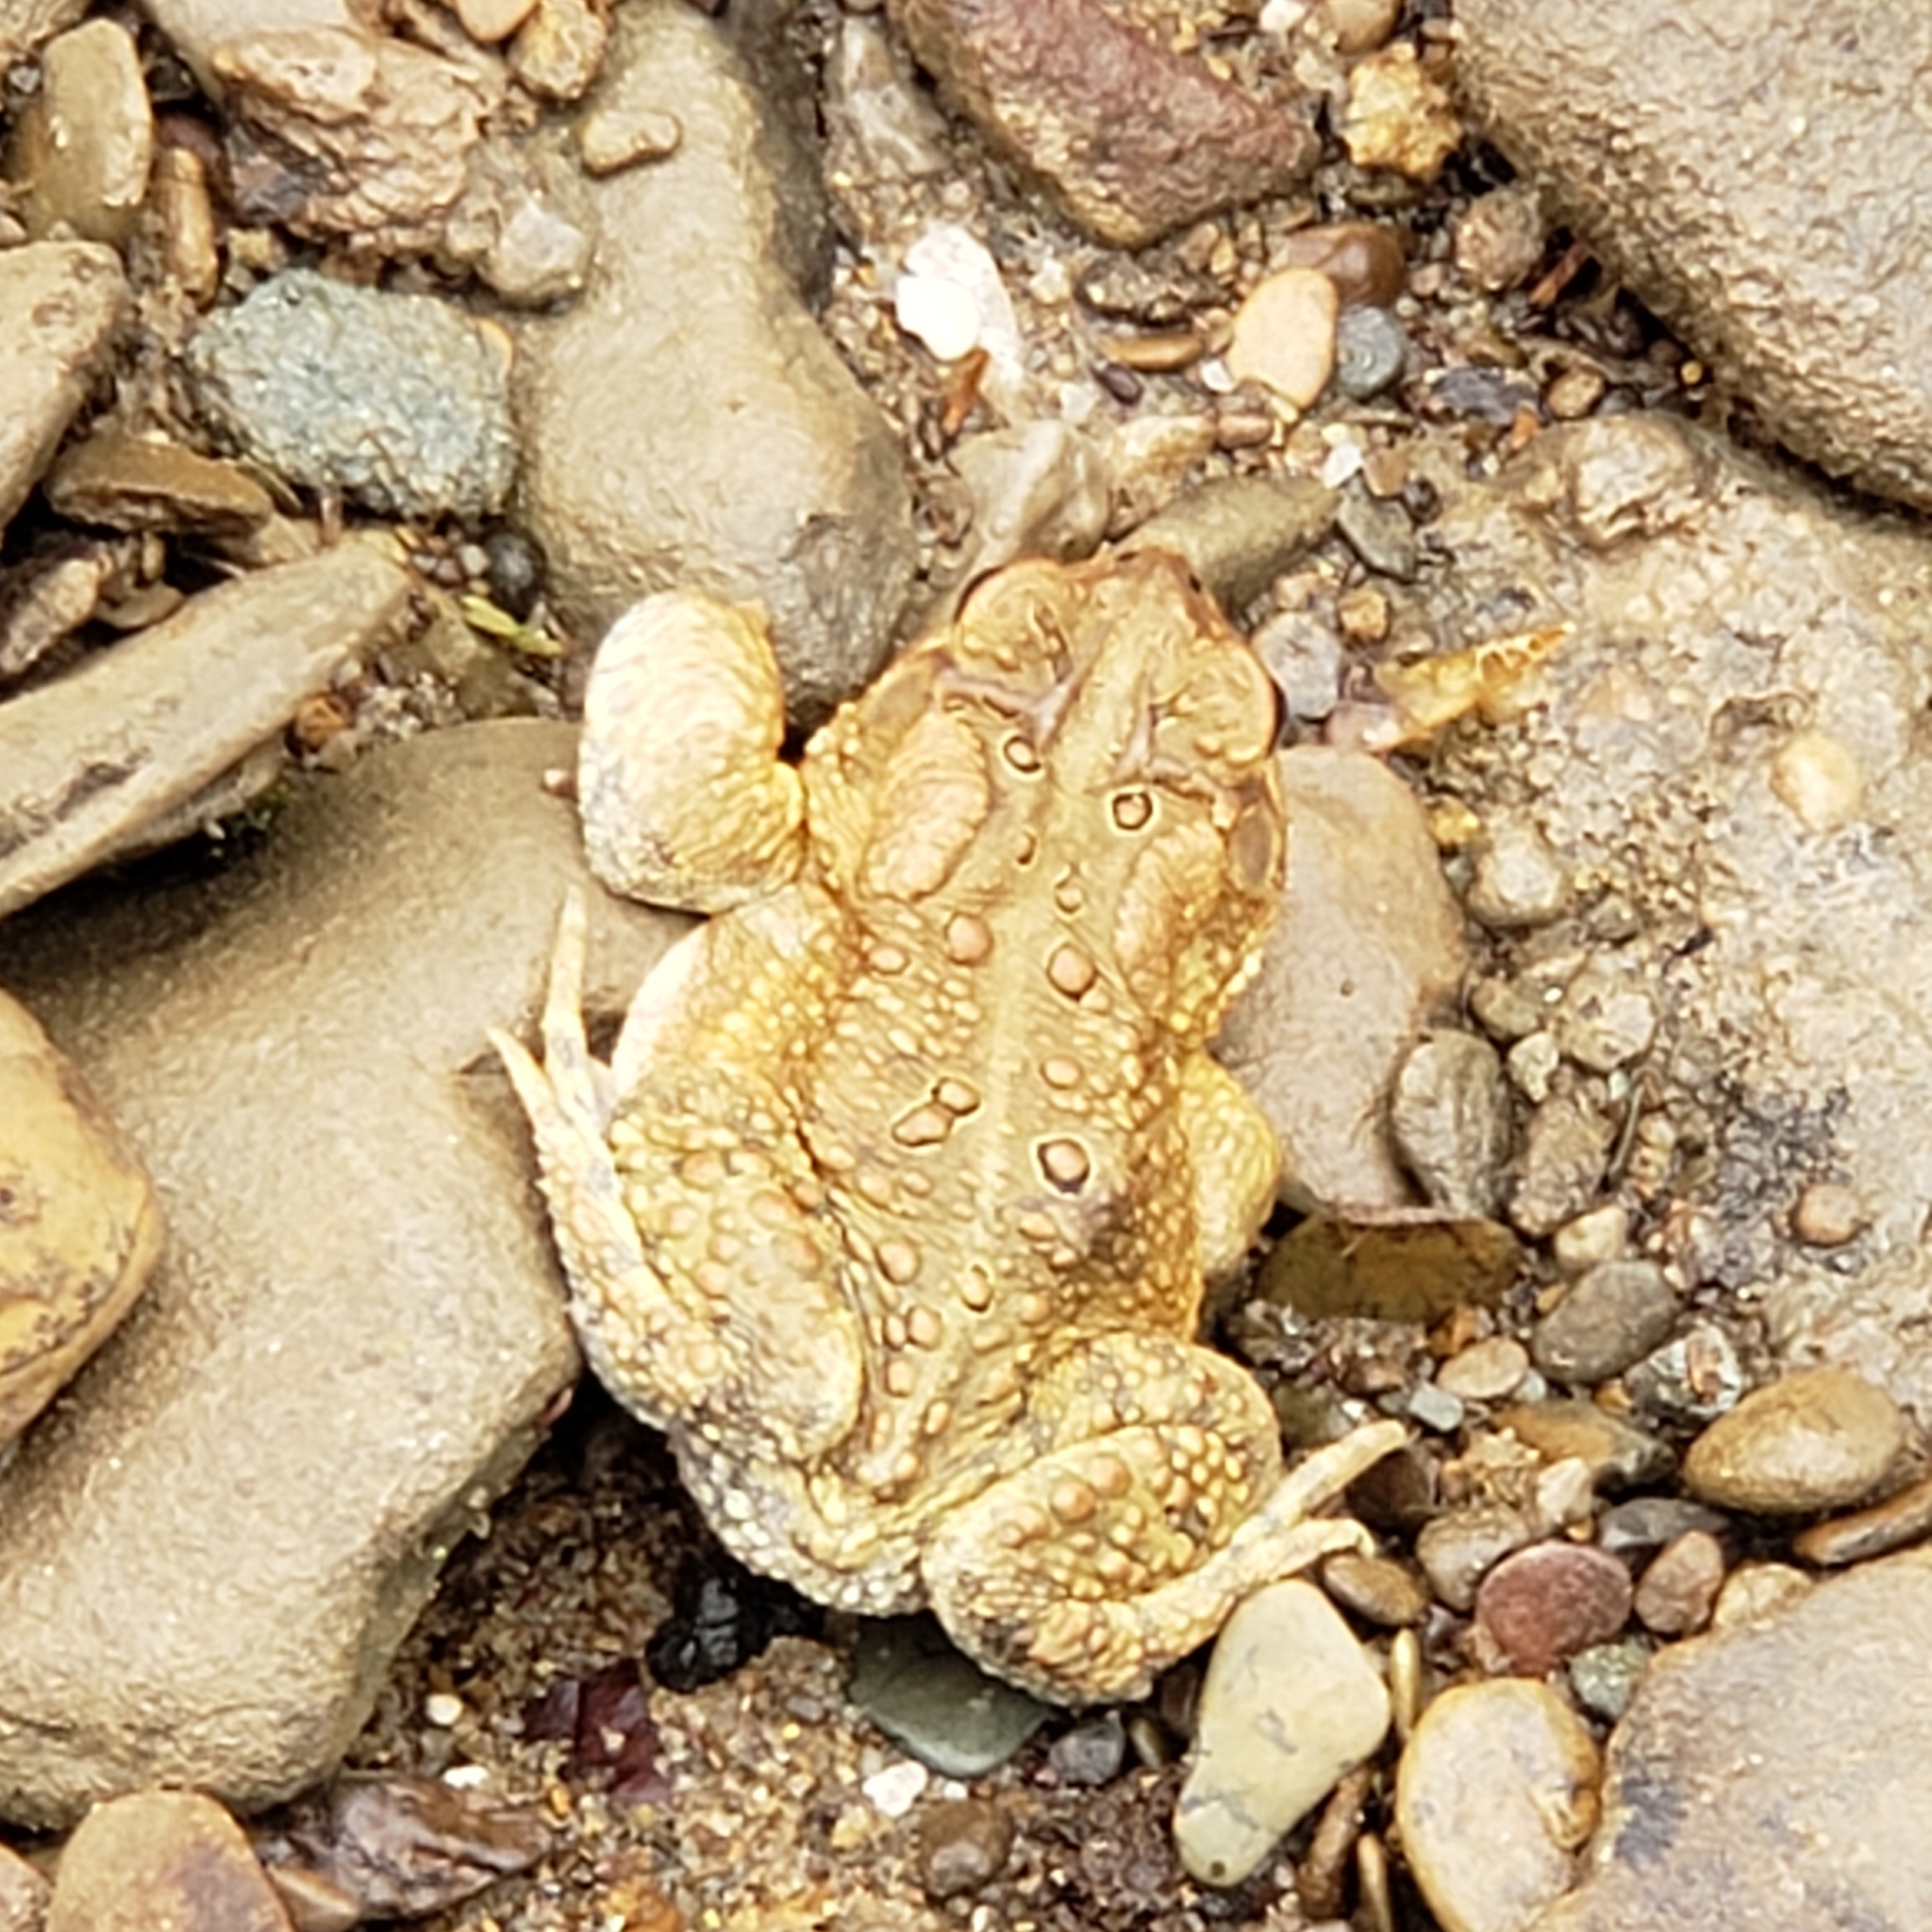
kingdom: Animalia
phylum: Chordata
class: Amphibia
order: Anura
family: Bufonidae
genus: Anaxyrus
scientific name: Anaxyrus americanus
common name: American toad
